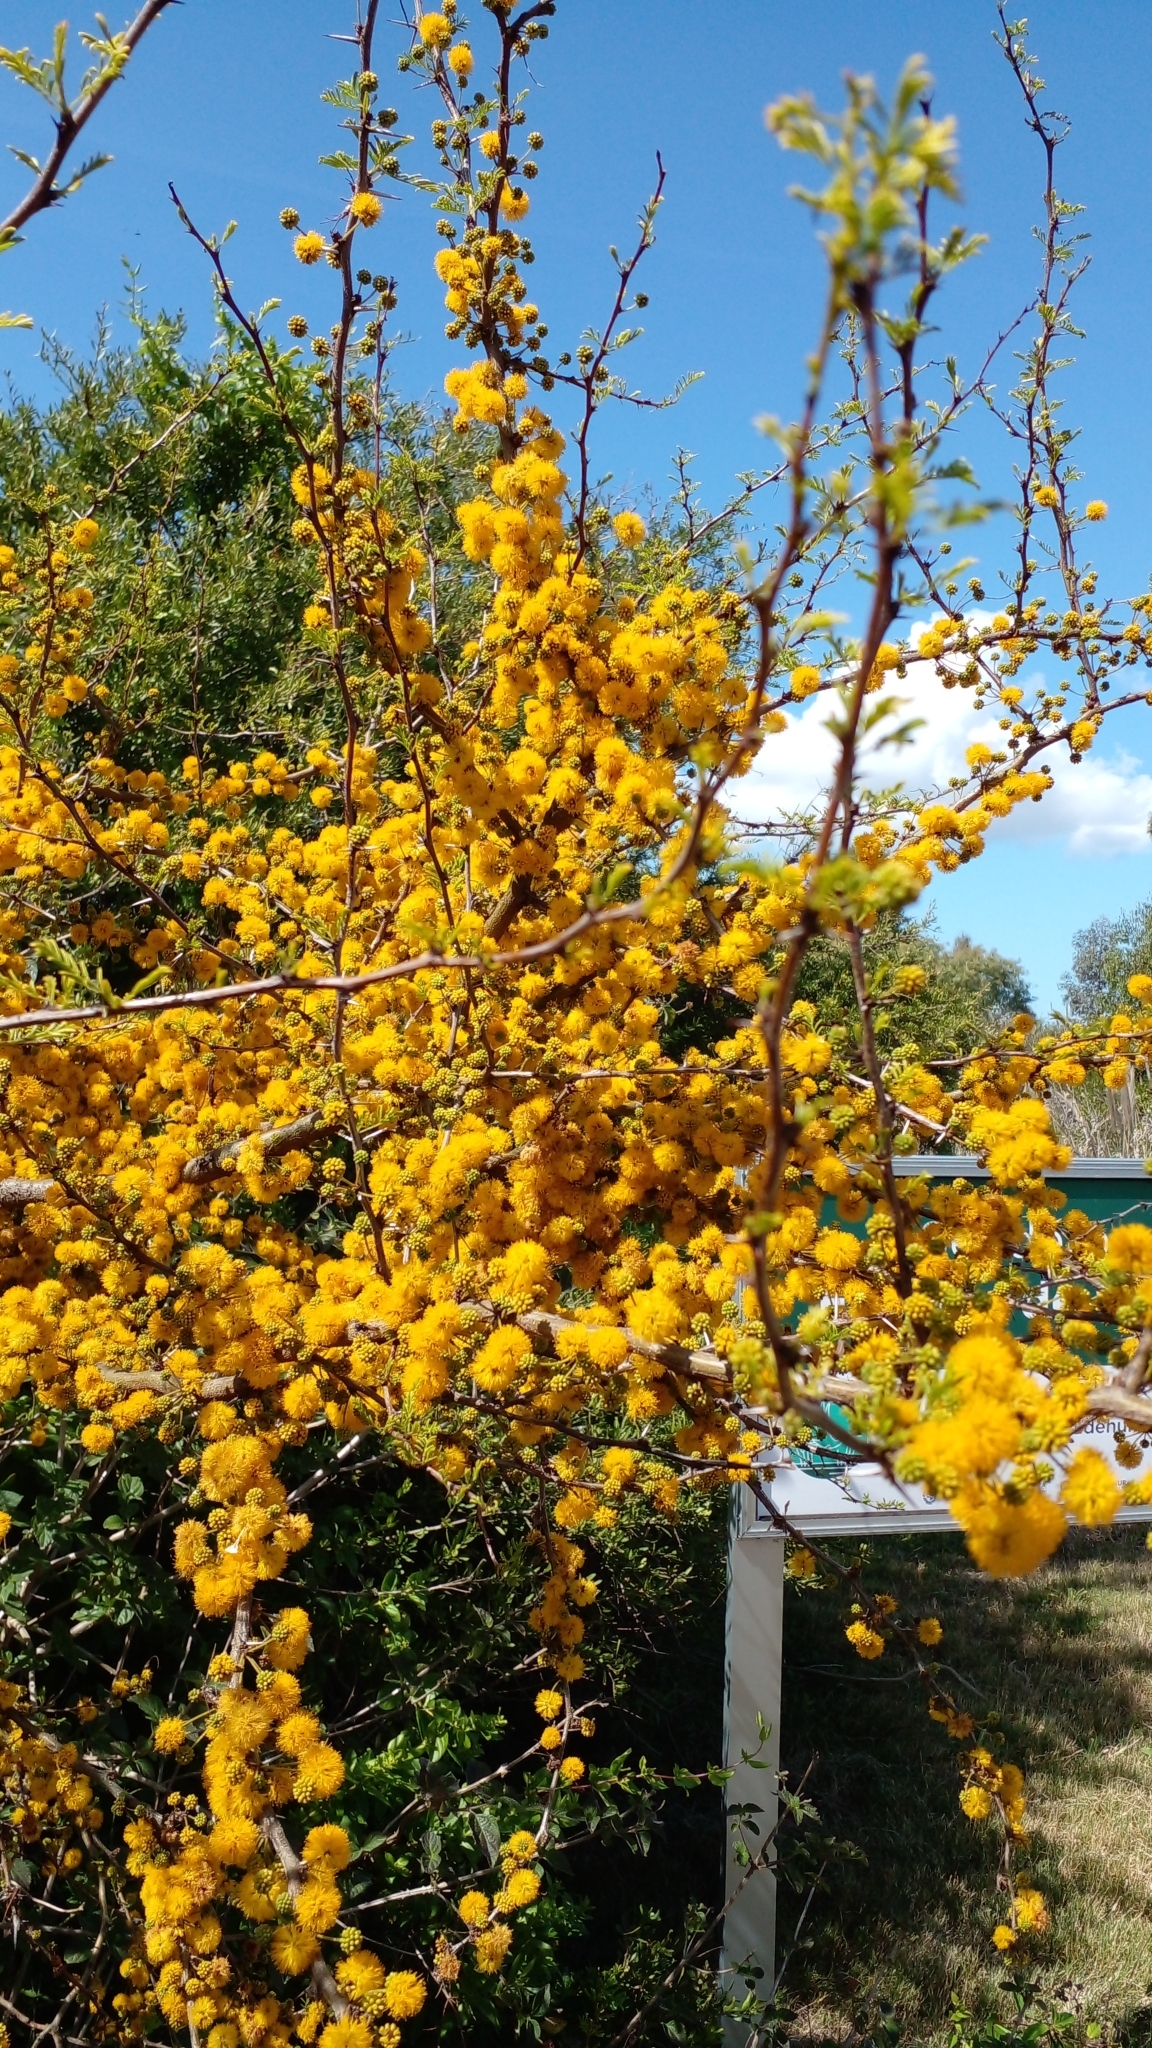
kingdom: Plantae
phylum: Tracheophyta
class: Magnoliopsida
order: Fabales
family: Fabaceae
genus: Vachellia
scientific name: Vachellia caven
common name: Roman cassie
